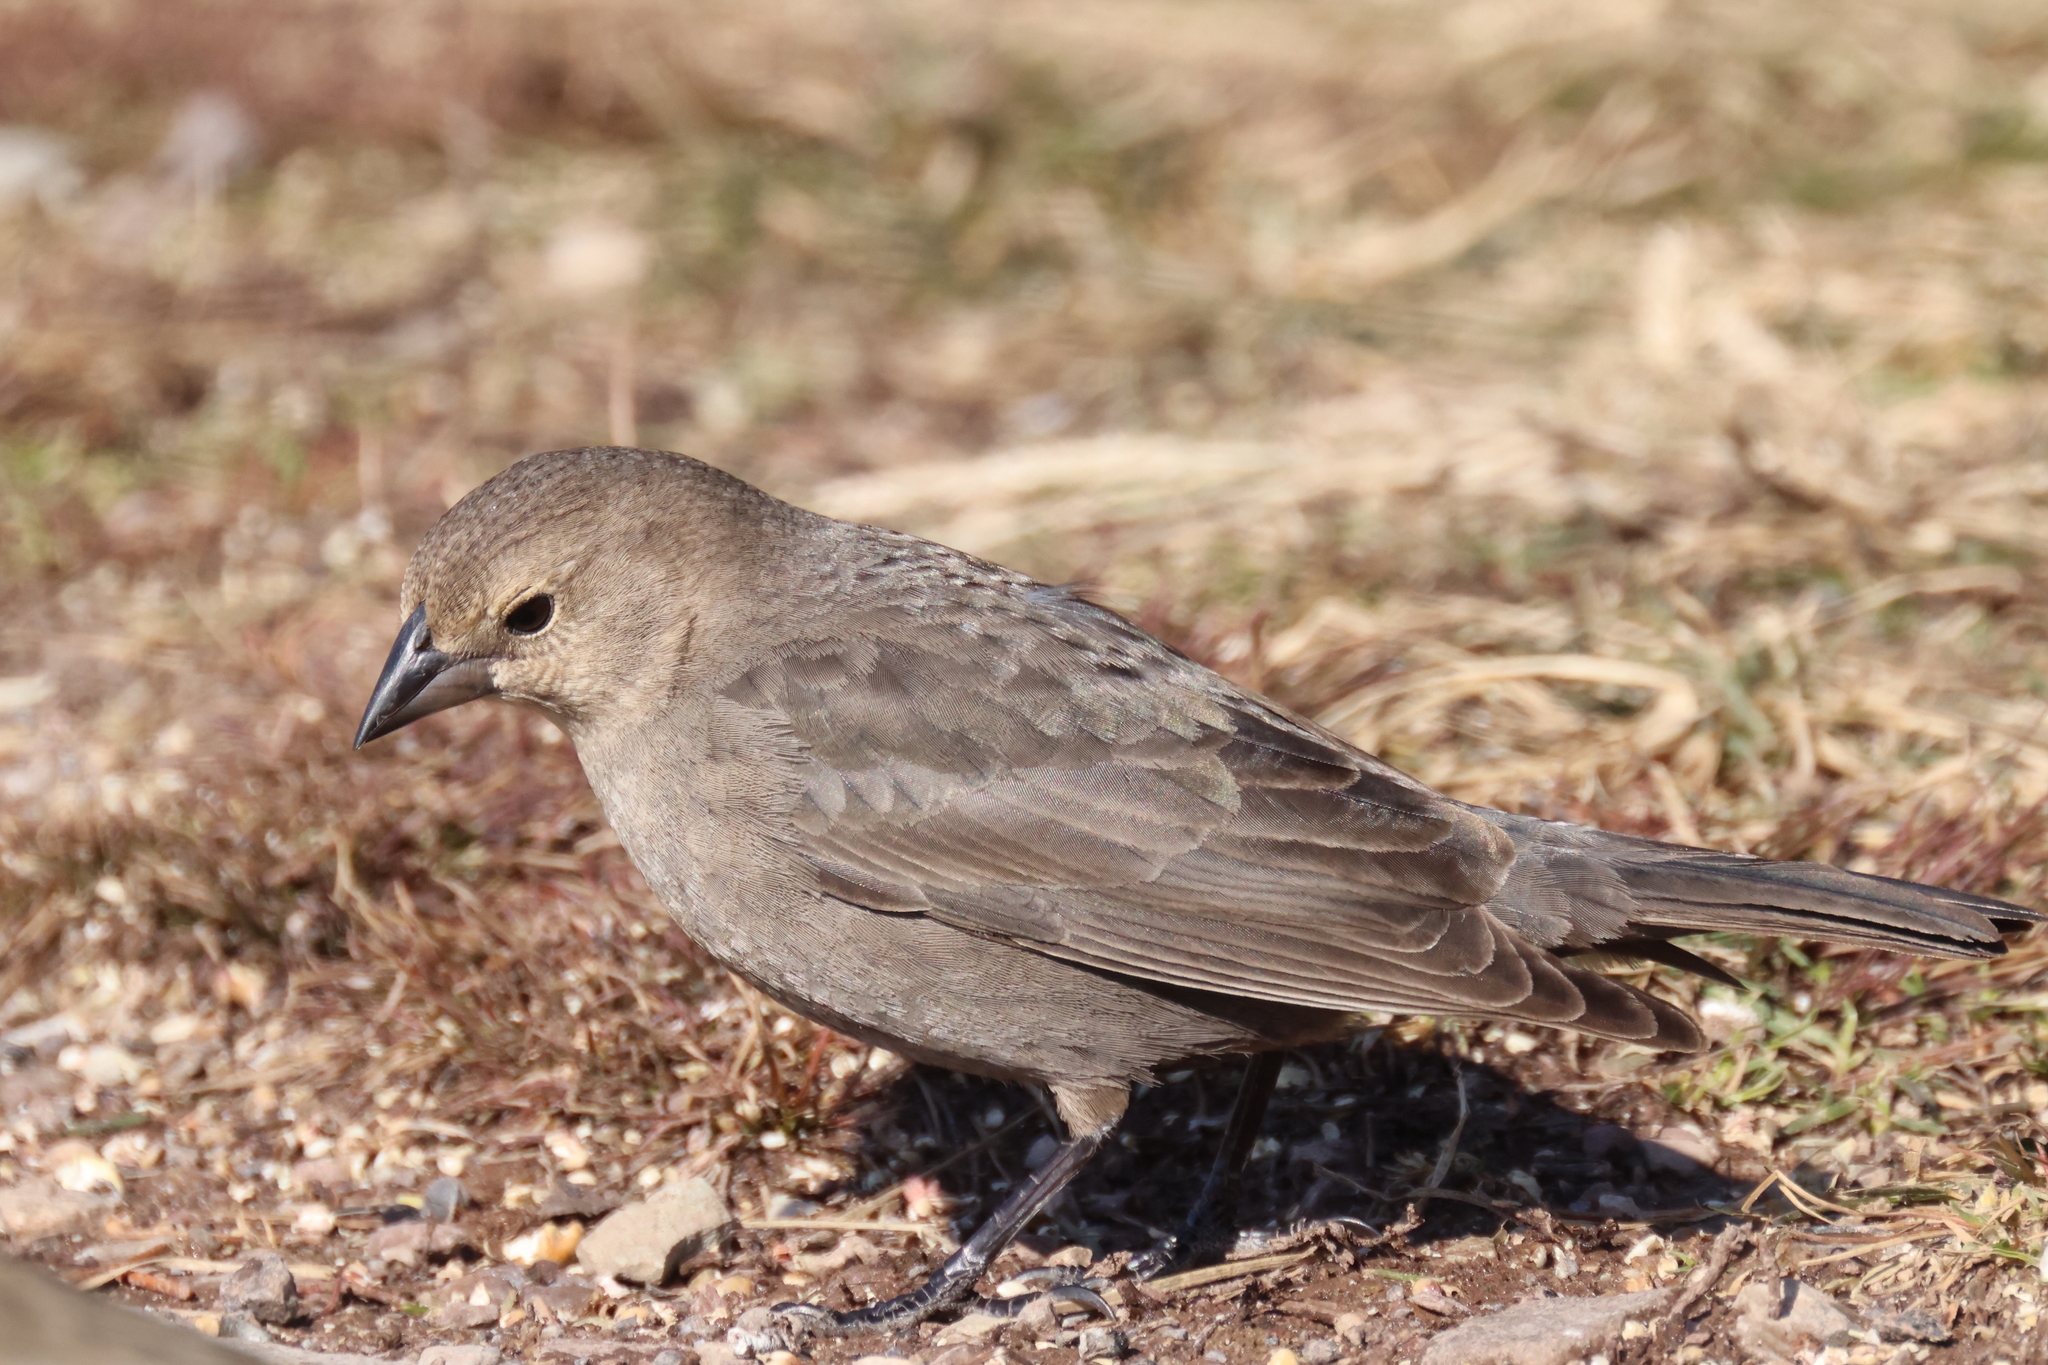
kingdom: Animalia
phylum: Chordata
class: Aves
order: Passeriformes
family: Icteridae
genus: Molothrus
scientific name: Molothrus ater
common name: Brown-headed cowbird
